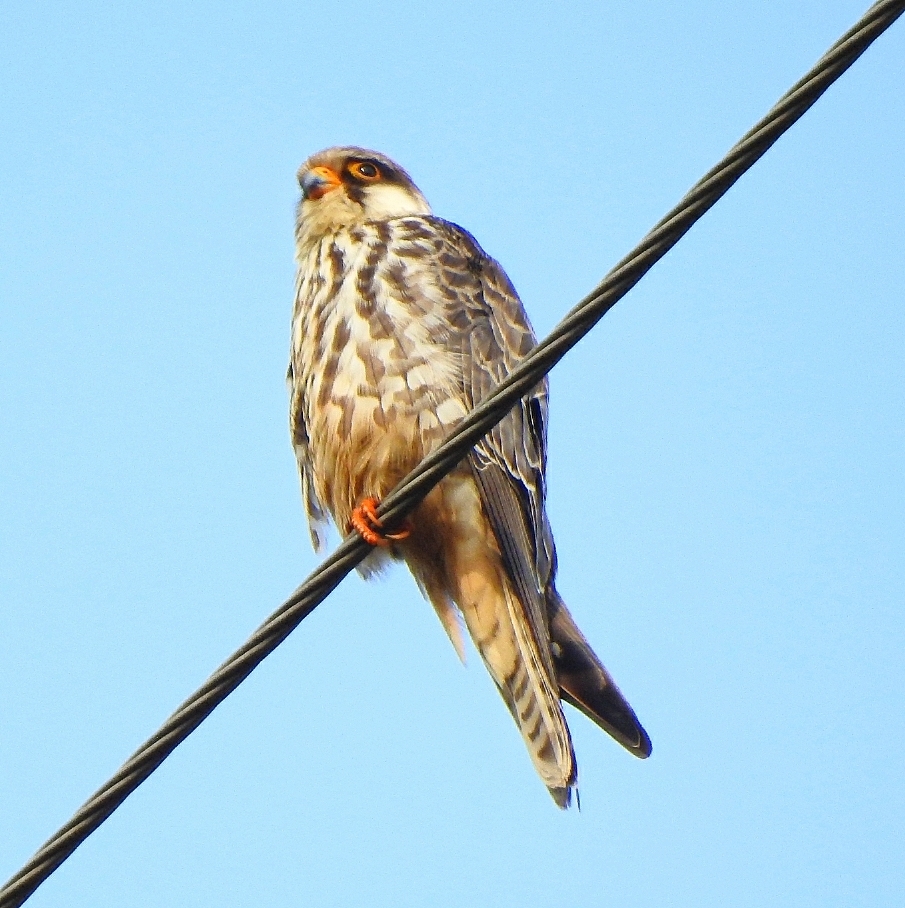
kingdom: Animalia
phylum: Chordata
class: Aves
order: Falconiformes
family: Falconidae
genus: Falco
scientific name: Falco amurensis
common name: Amur falcon
